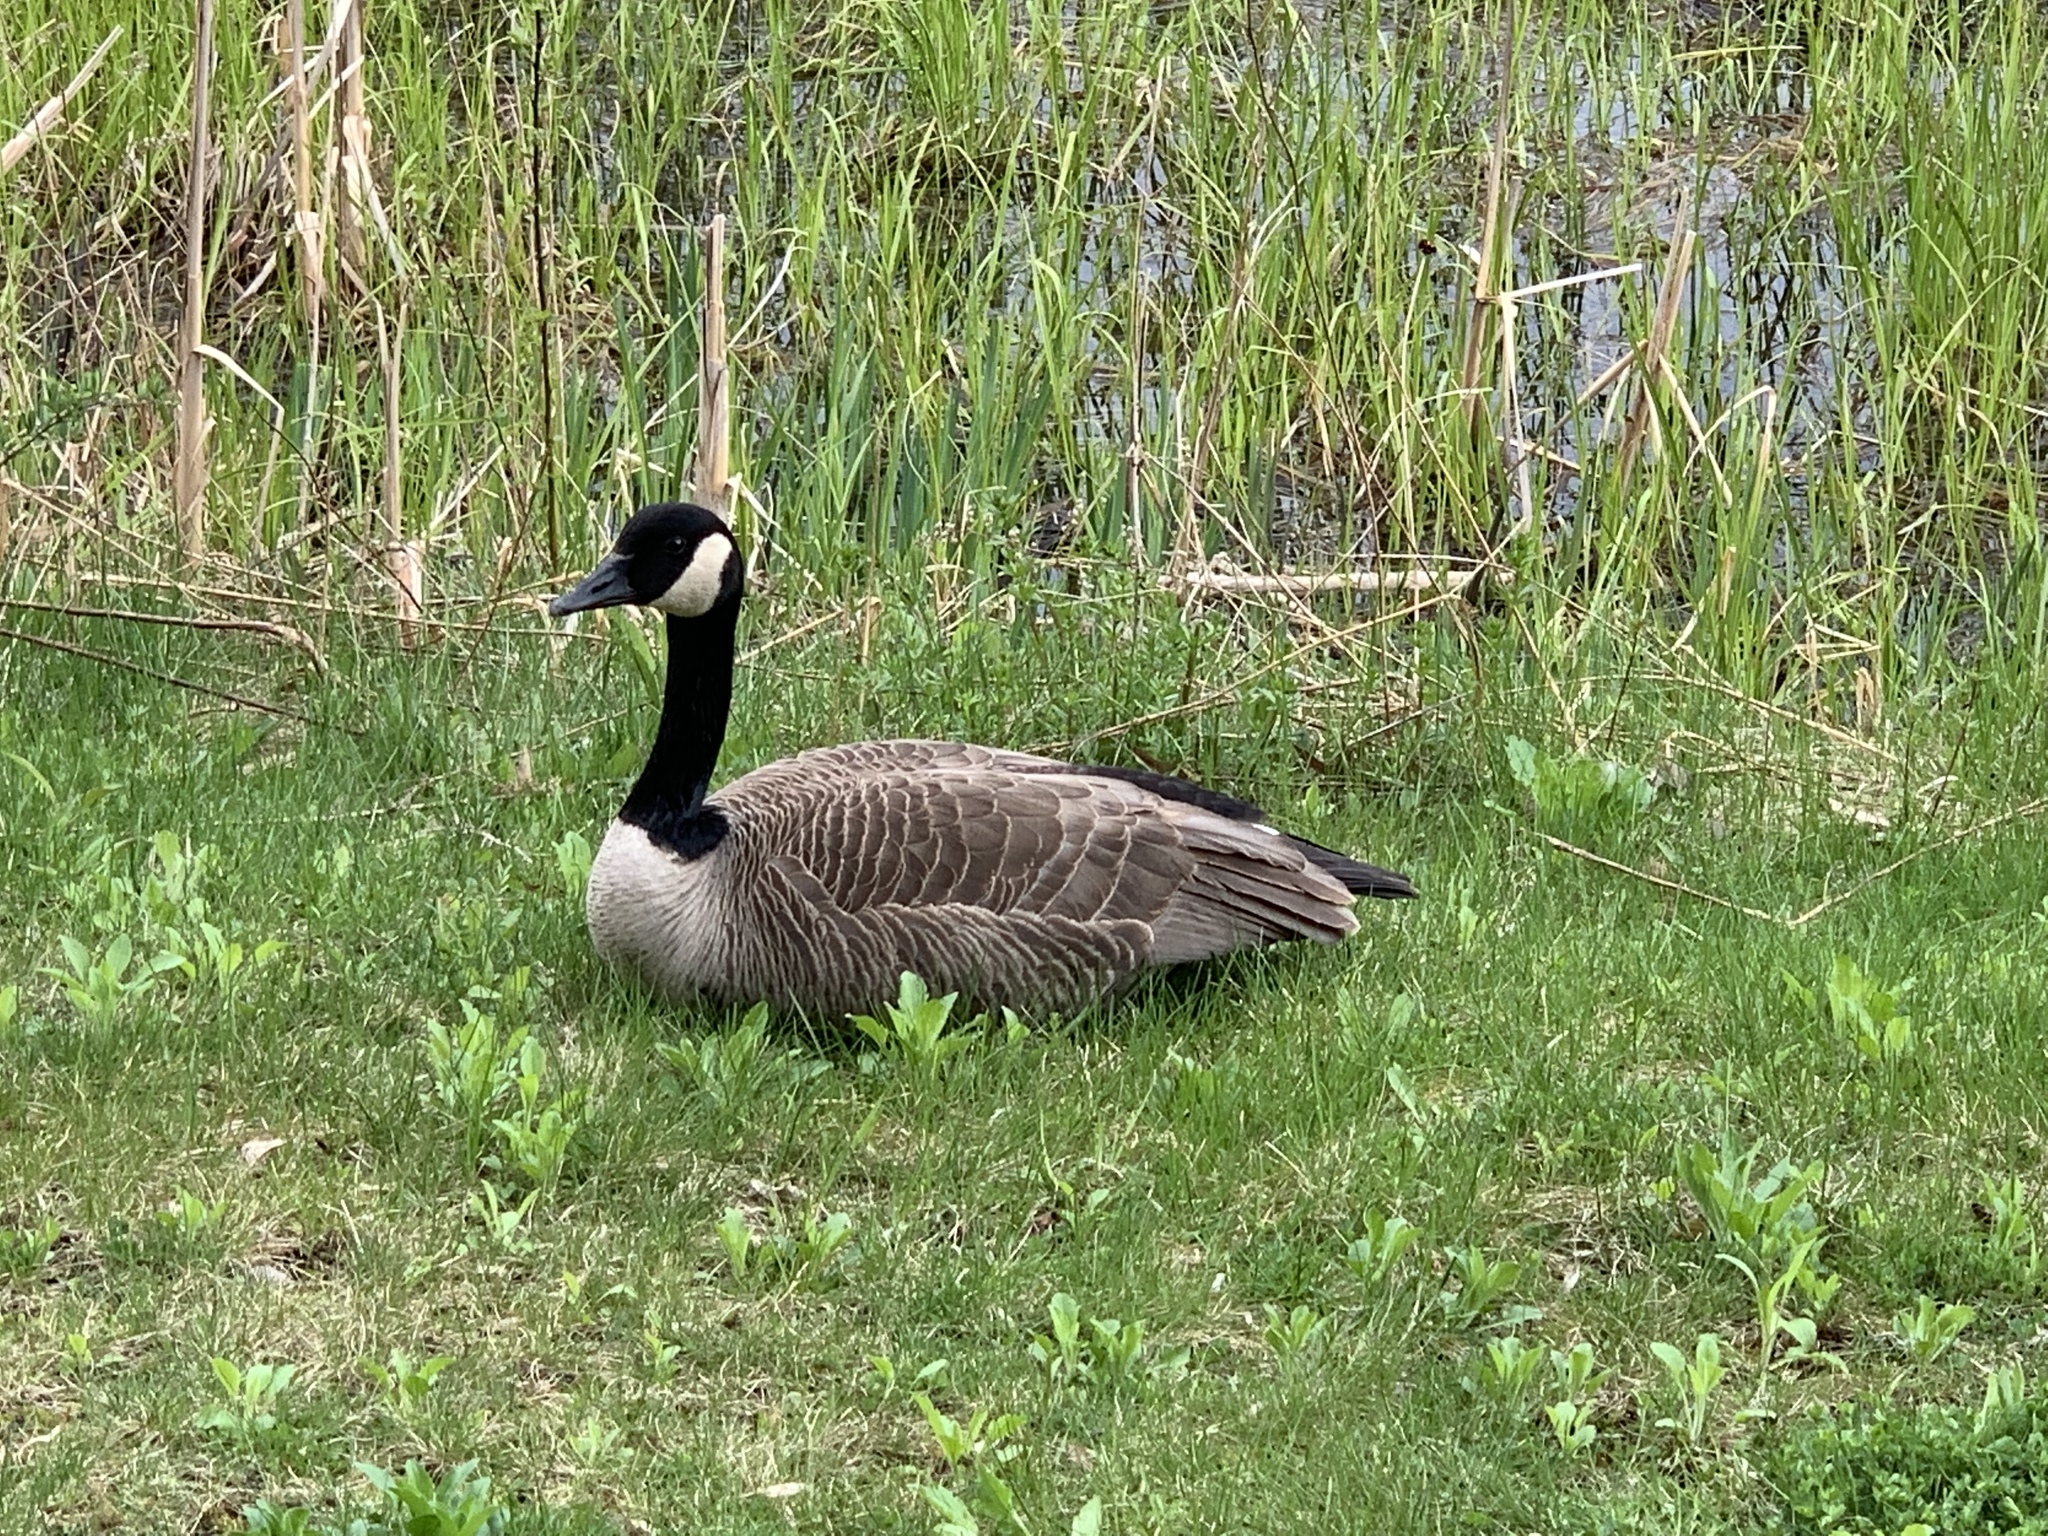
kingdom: Animalia
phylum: Chordata
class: Aves
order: Anseriformes
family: Anatidae
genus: Branta
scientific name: Branta canadensis
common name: Canada goose
